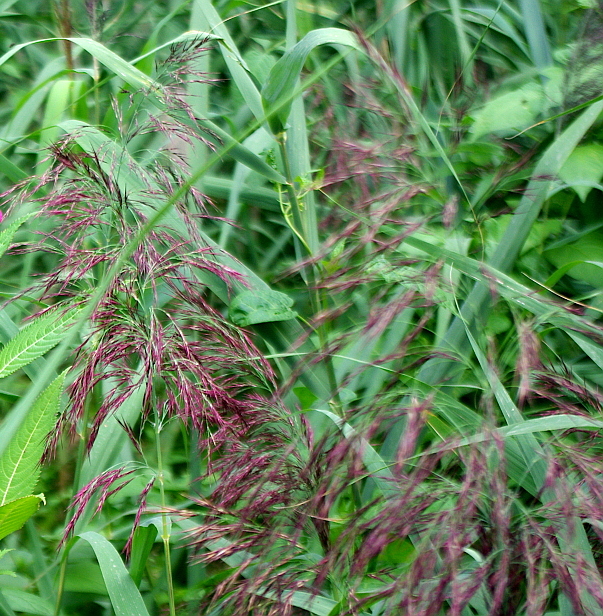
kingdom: Plantae
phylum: Tracheophyta
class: Liliopsida
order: Poales
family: Poaceae
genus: Phragmites
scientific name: Phragmites australis
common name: Common reed
